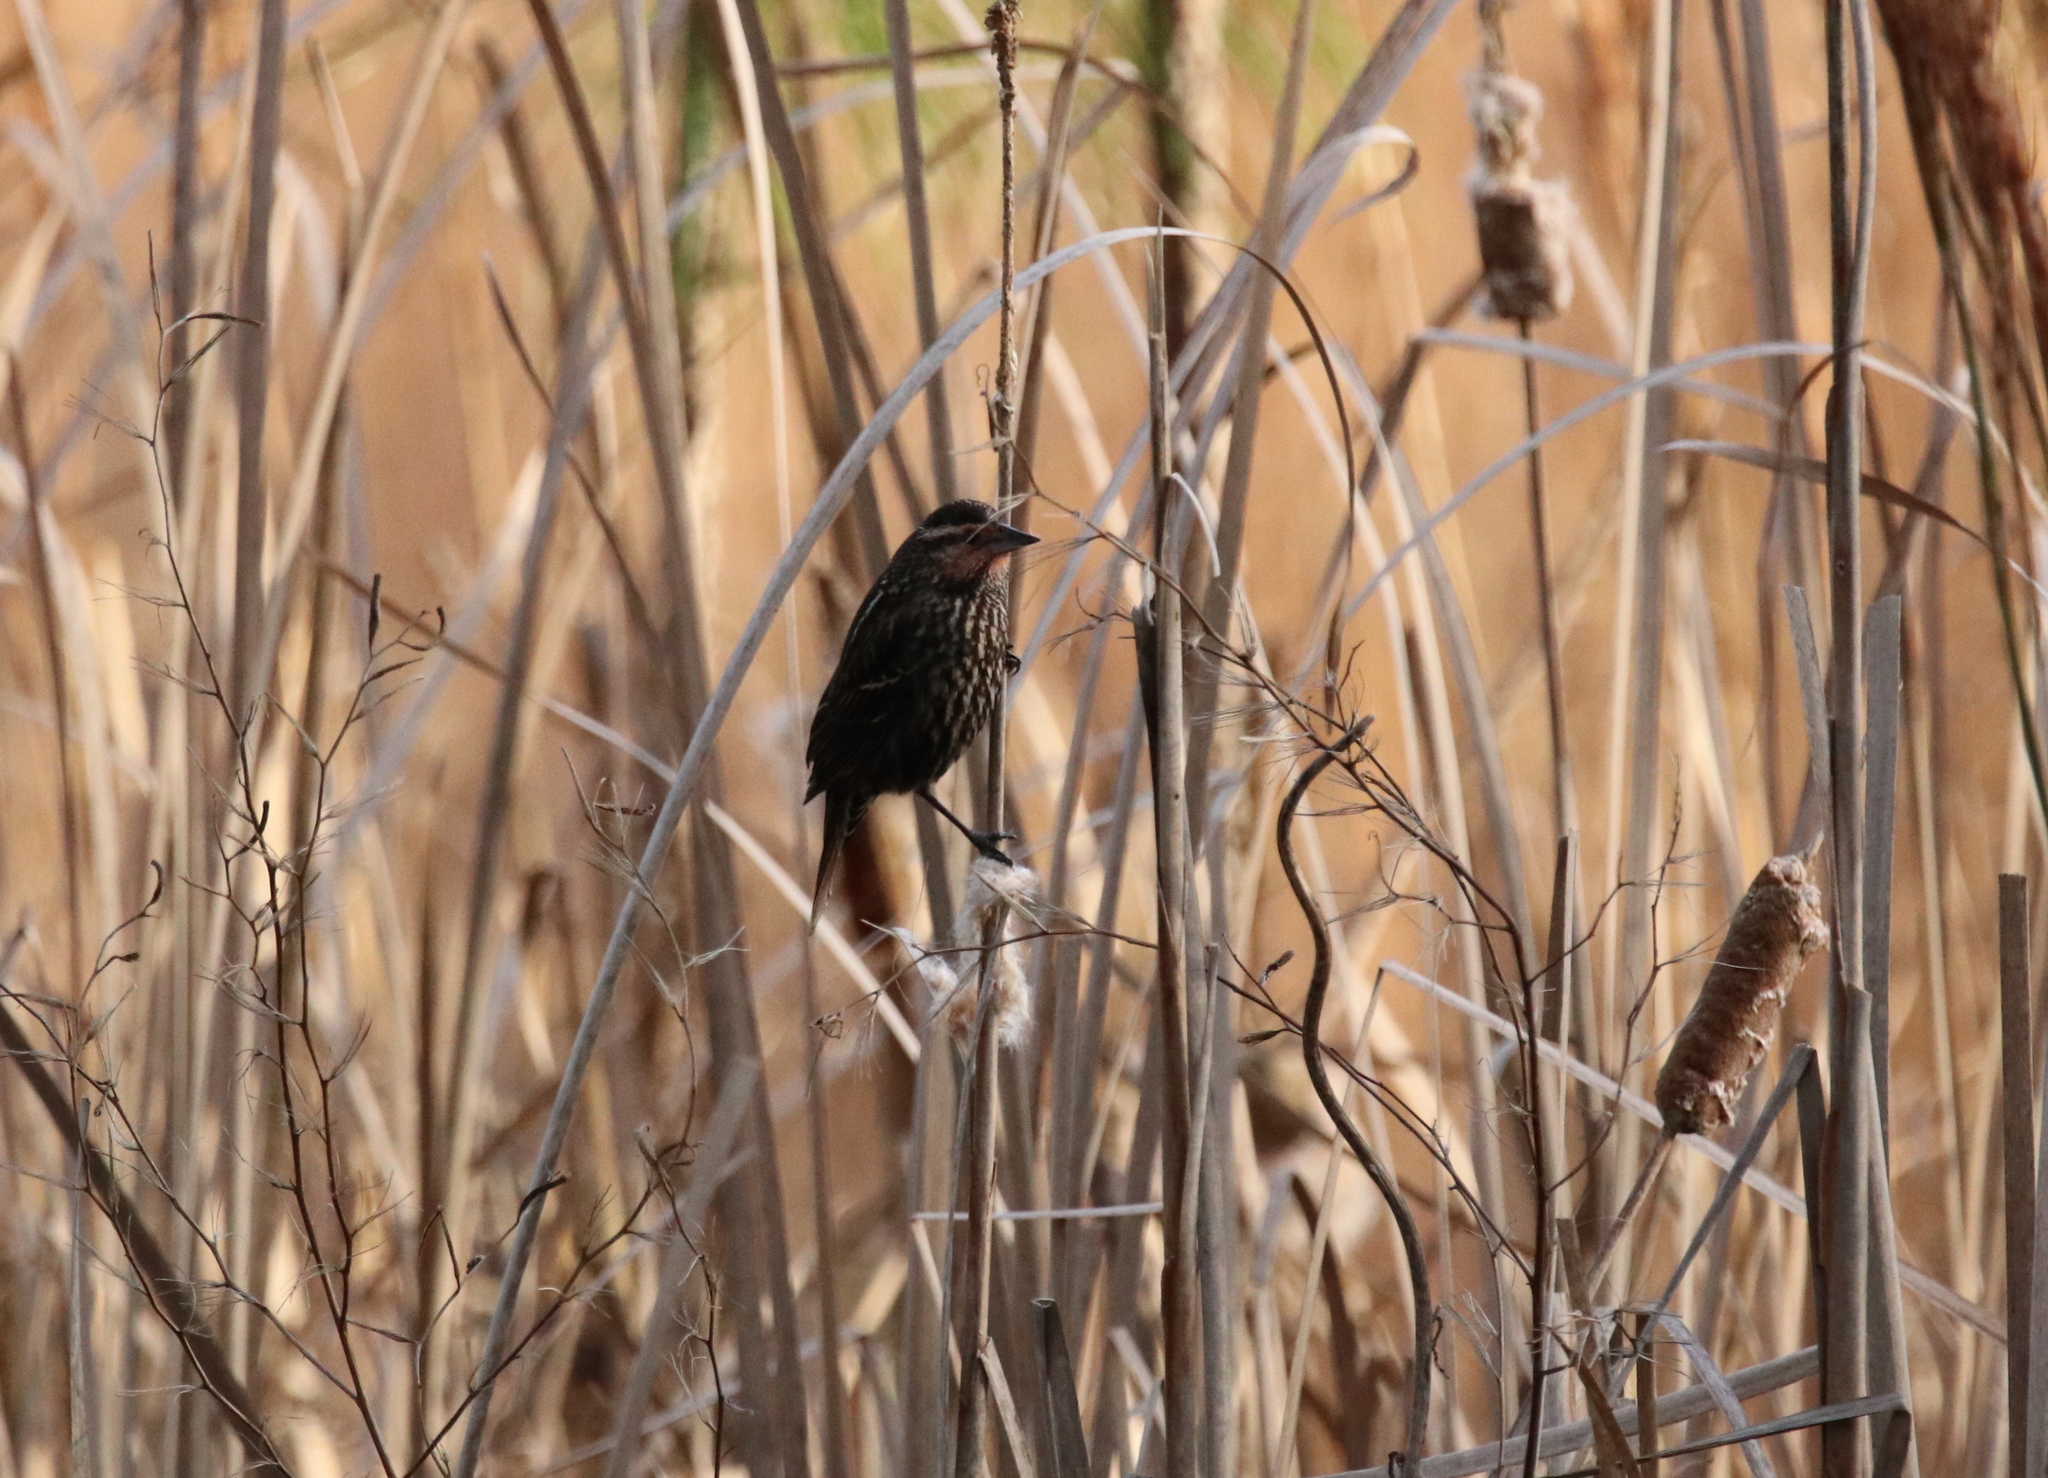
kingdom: Animalia
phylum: Chordata
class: Aves
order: Passeriformes
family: Icteridae
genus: Agelaius
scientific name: Agelaius phoeniceus
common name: Red-winged blackbird
